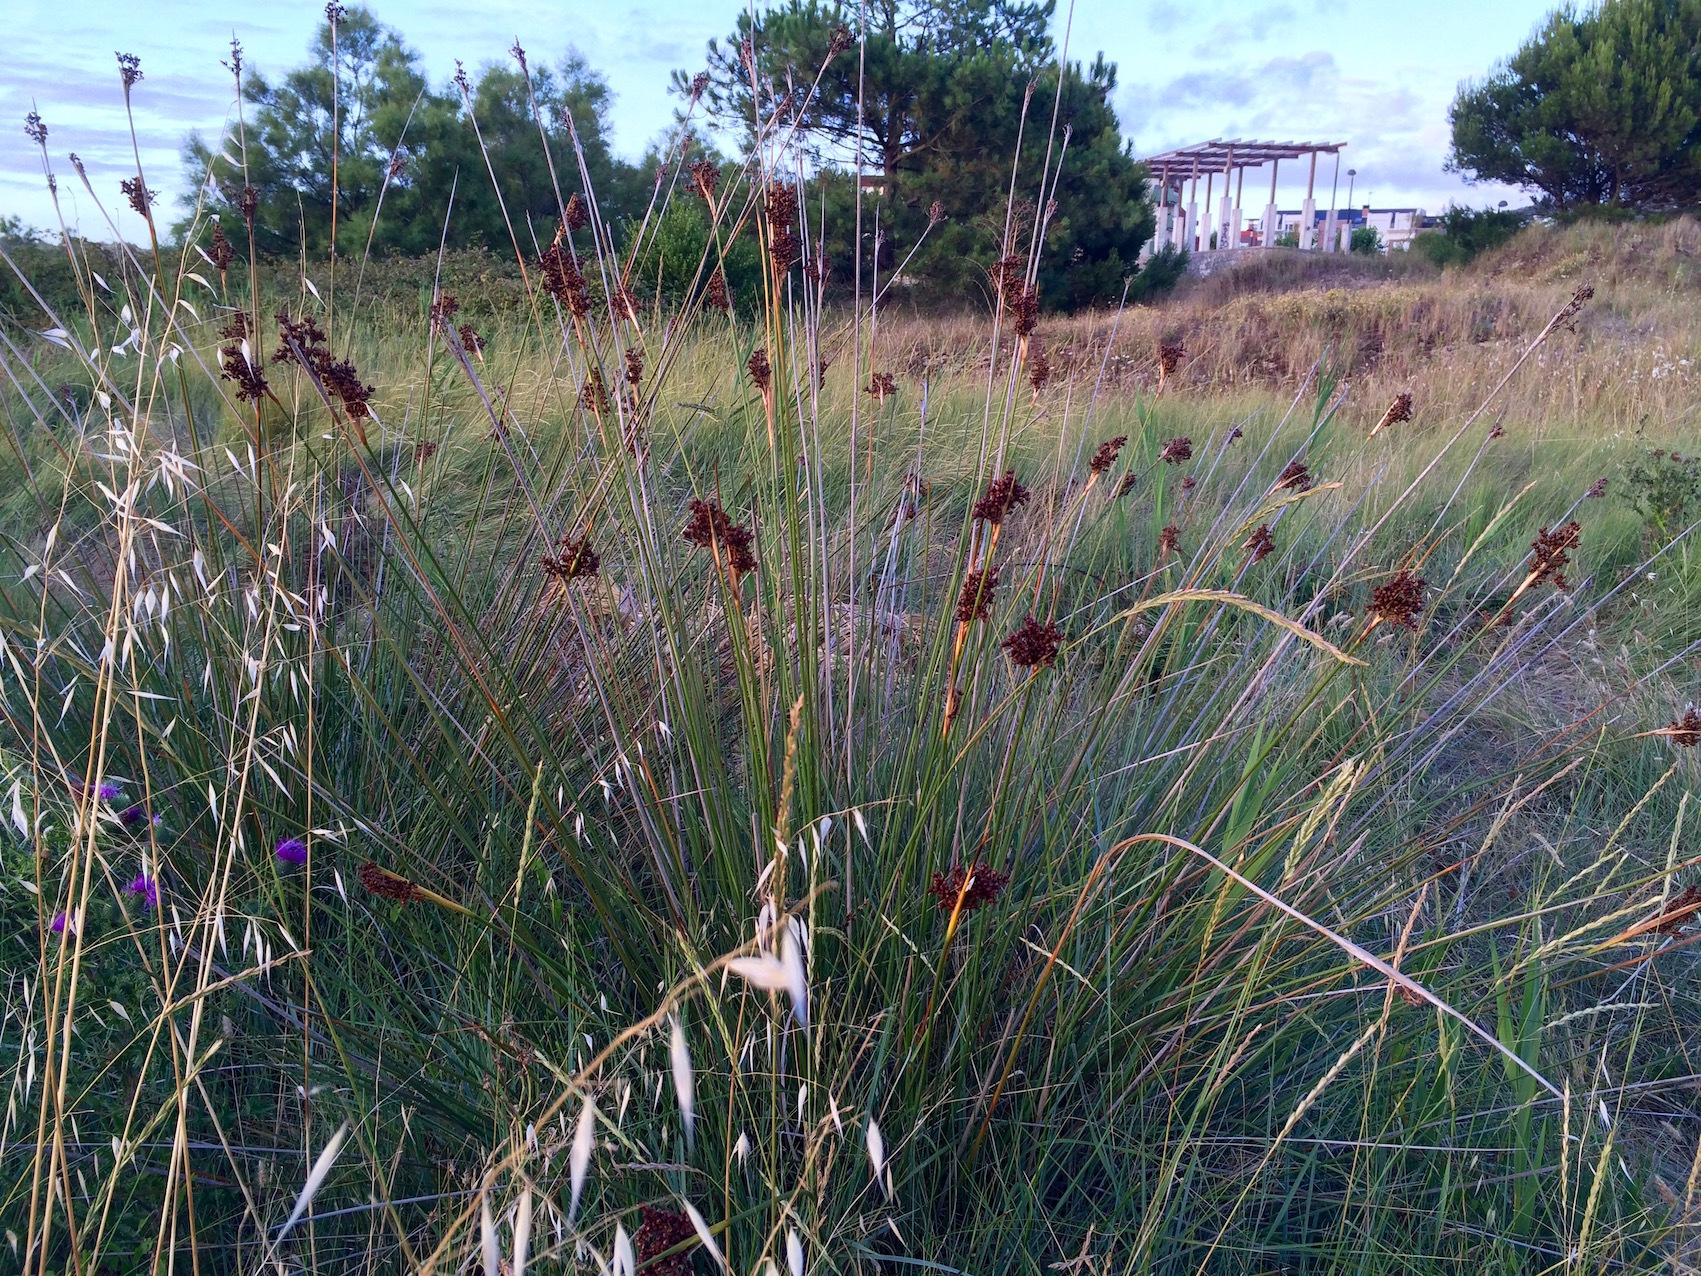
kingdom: Plantae
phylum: Tracheophyta
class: Liliopsida
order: Poales
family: Juncaceae
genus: Juncus
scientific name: Juncus acutus
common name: Sharp rush
